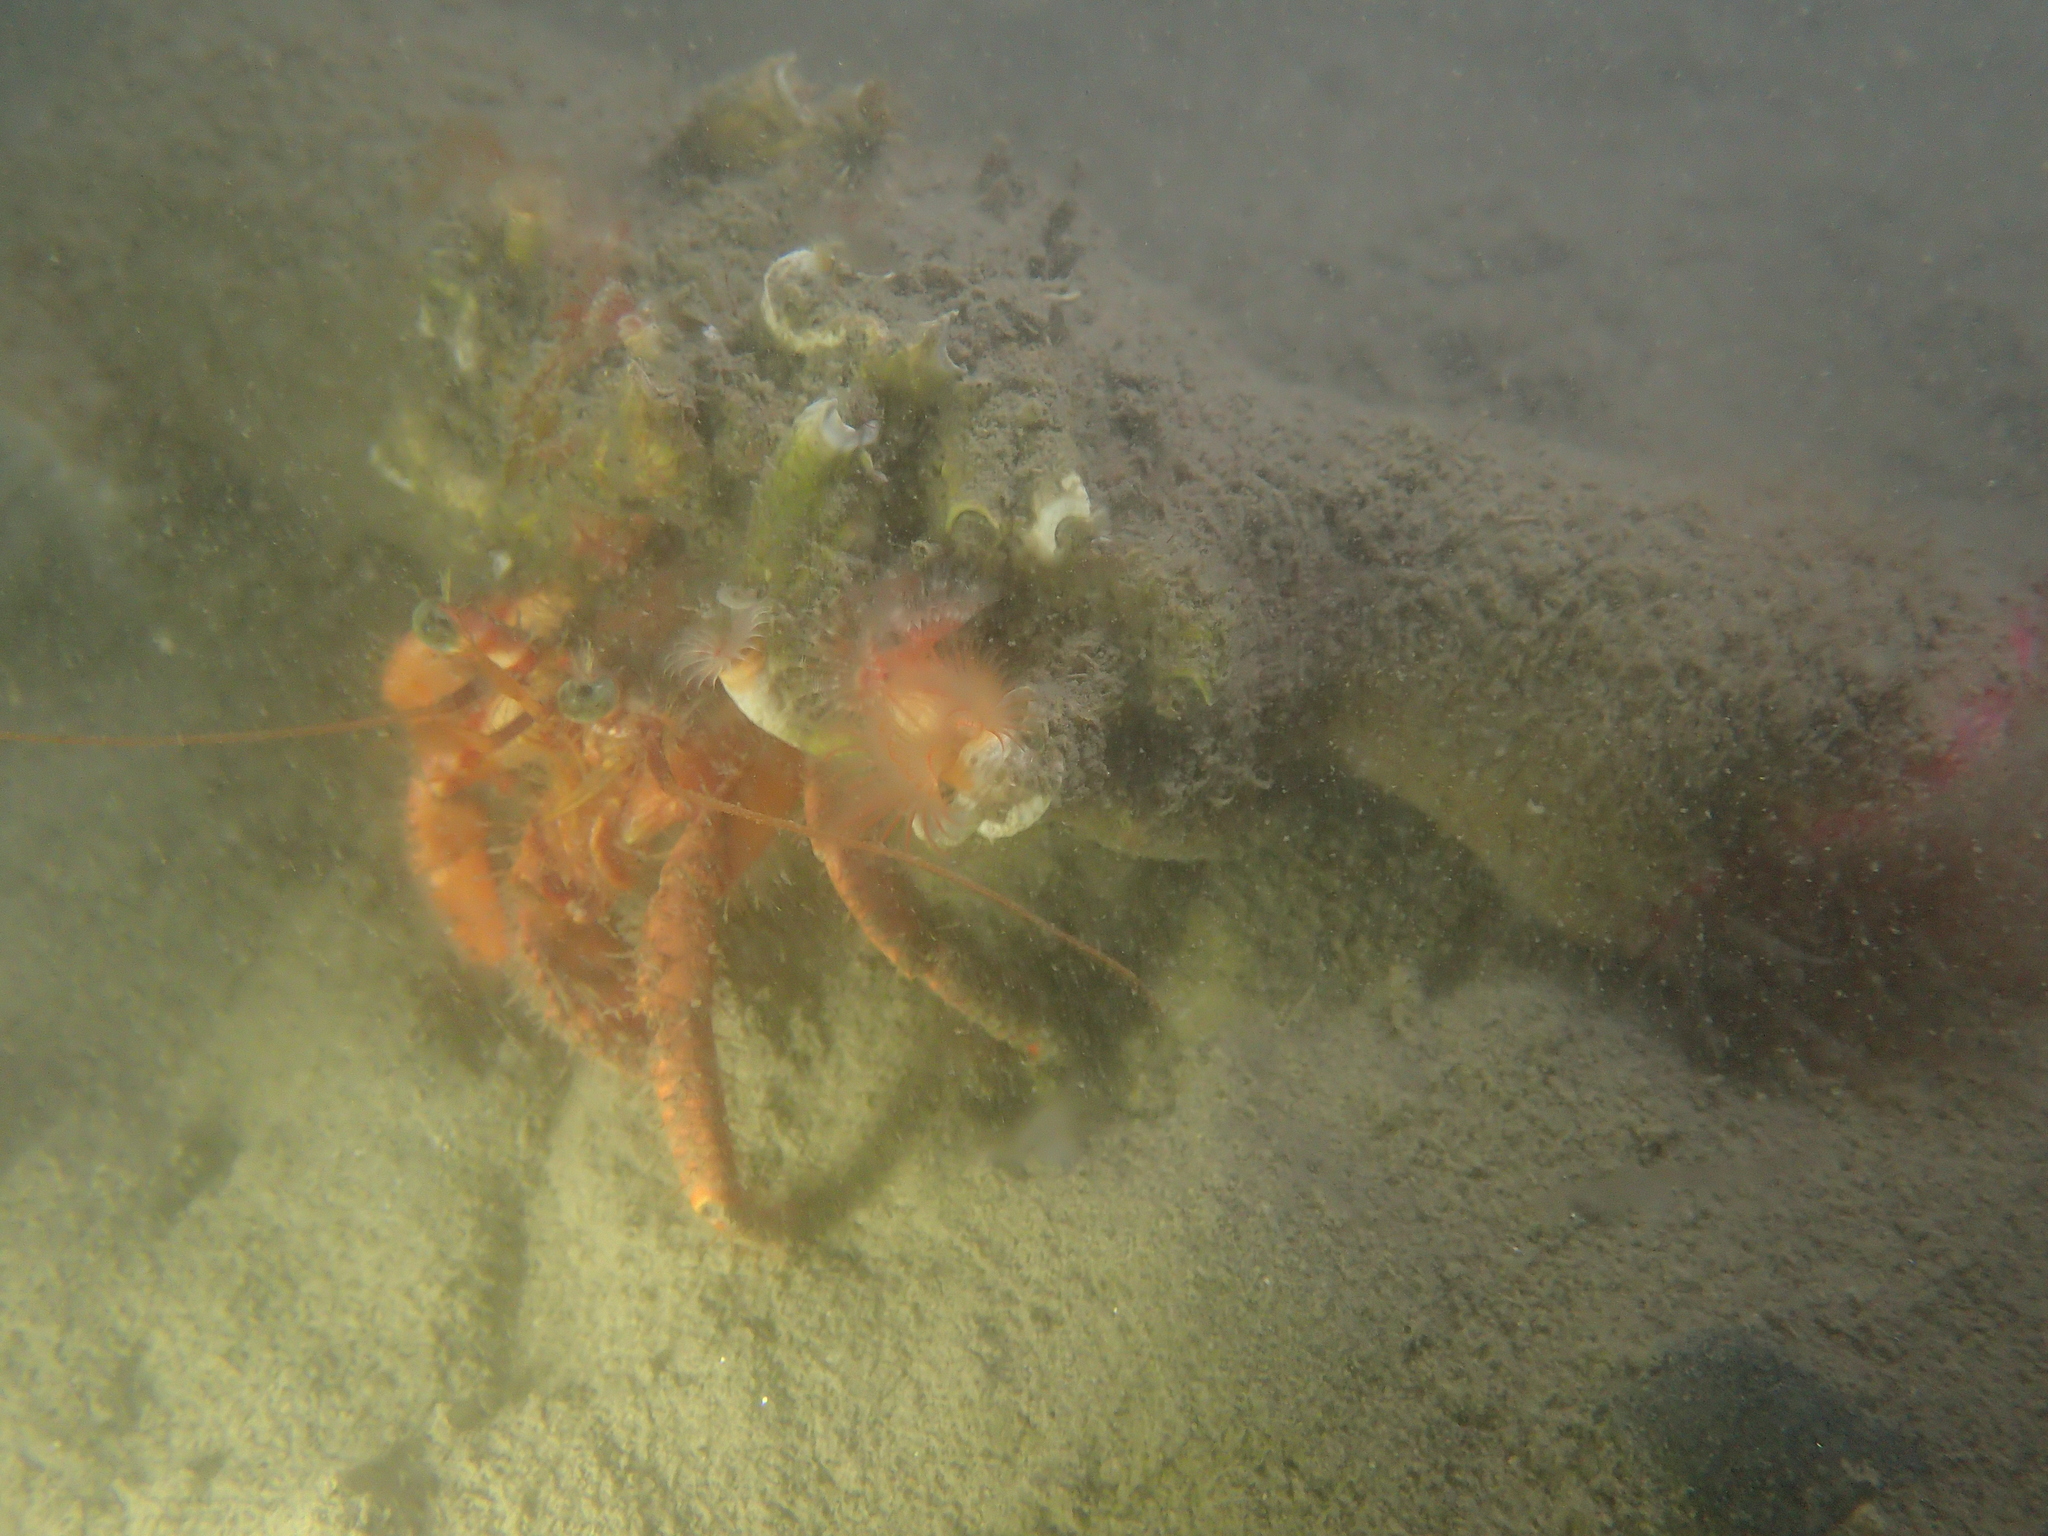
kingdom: Animalia
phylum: Arthropoda
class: Malacostraca
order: Decapoda
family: Paguridae
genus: Pagurus
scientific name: Pagurus prideaux
